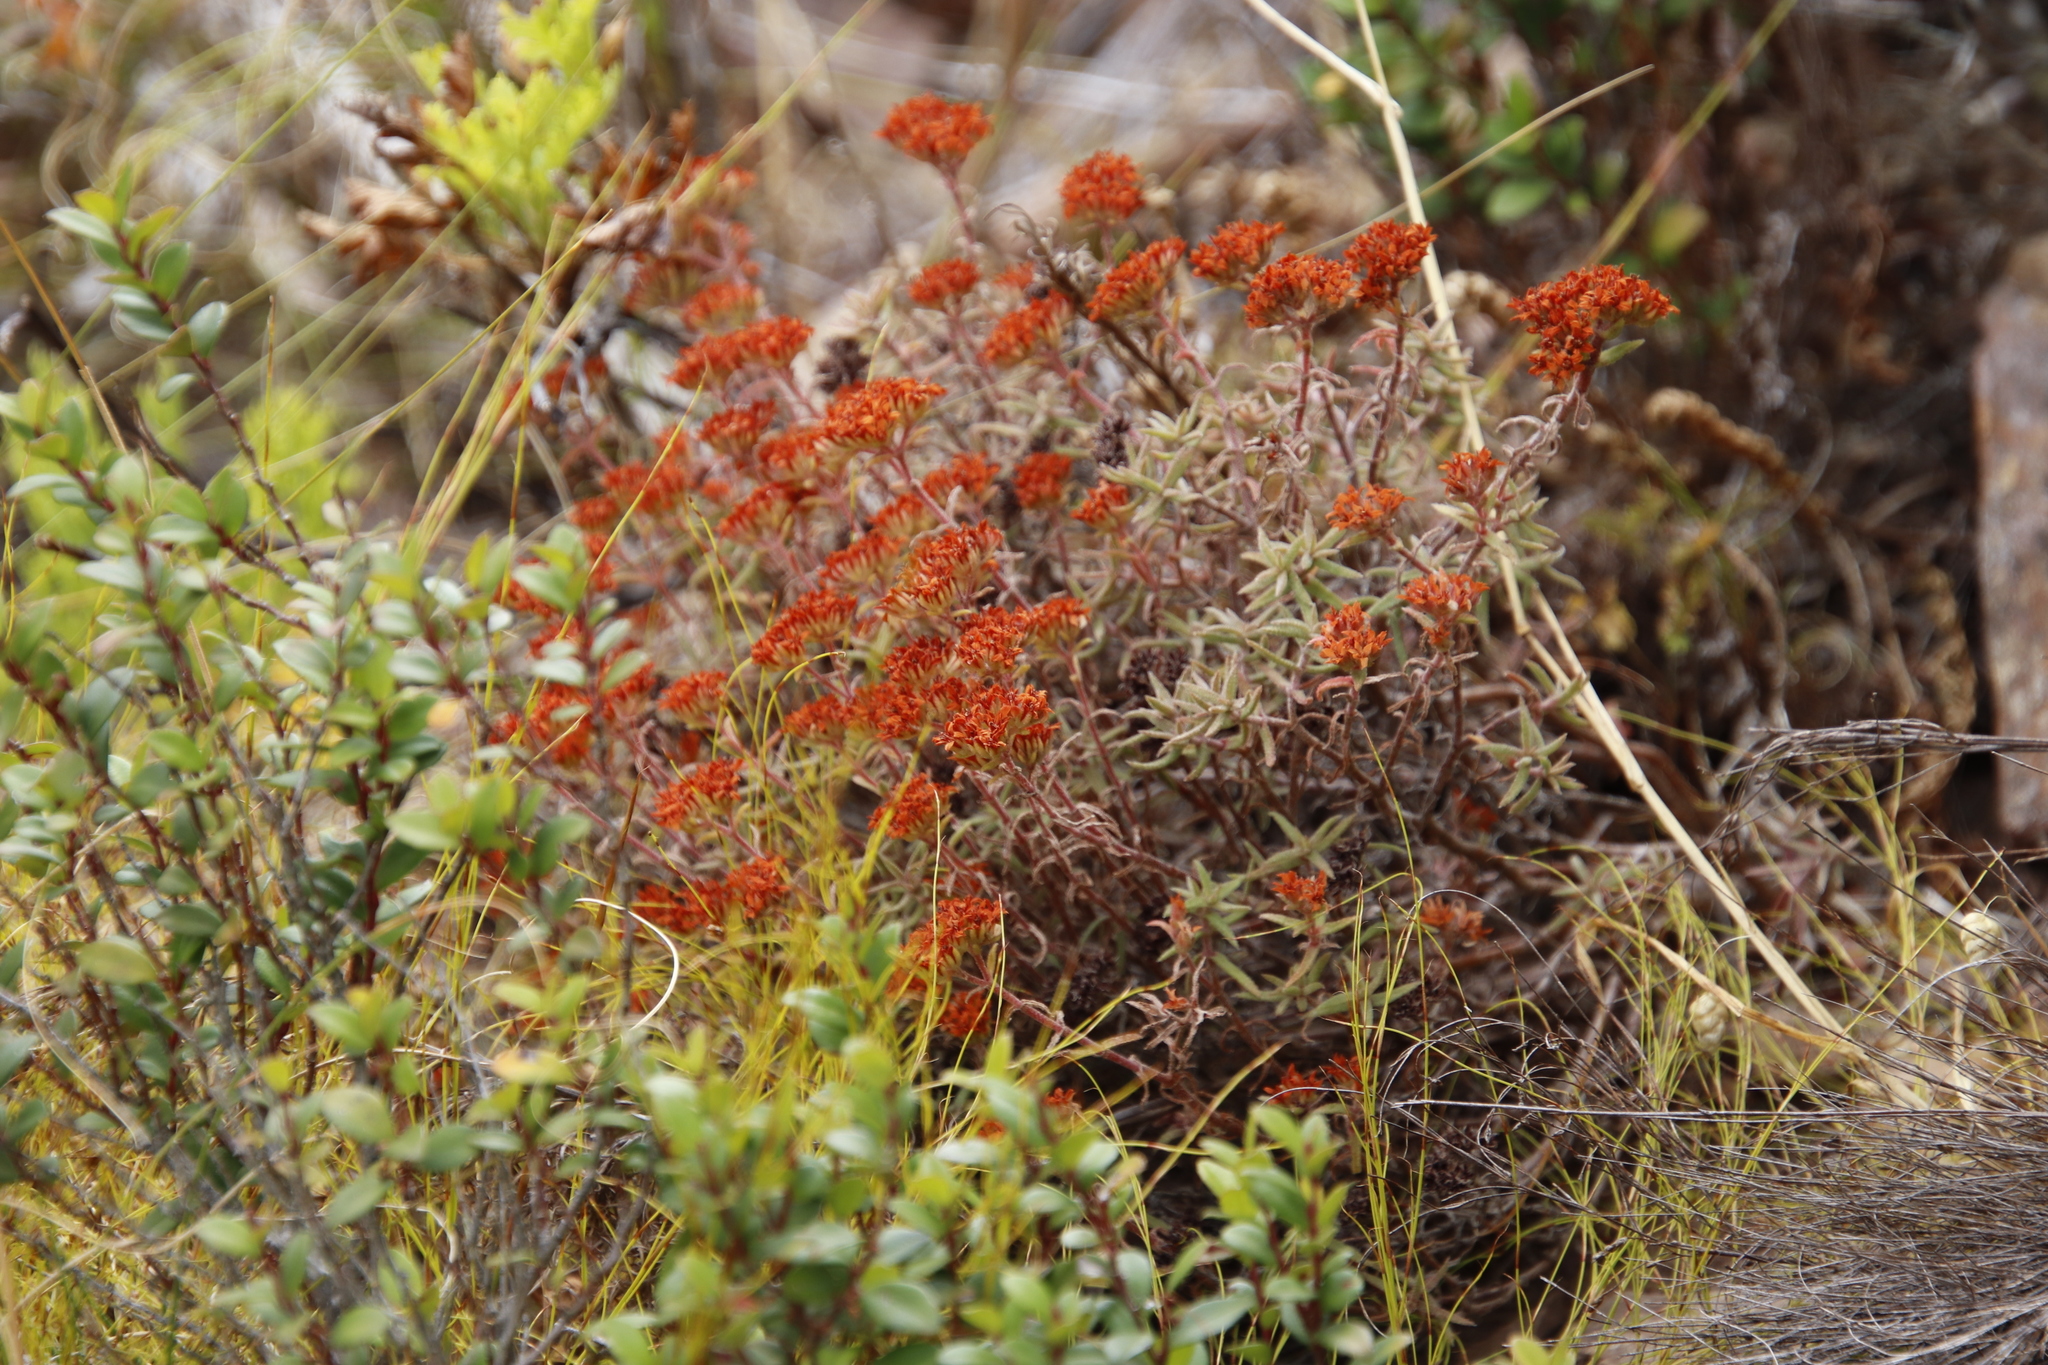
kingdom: Plantae
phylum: Tracheophyta
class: Magnoliopsida
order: Saxifragales
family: Crassulaceae
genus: Crassula
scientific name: Crassula pruinosa
